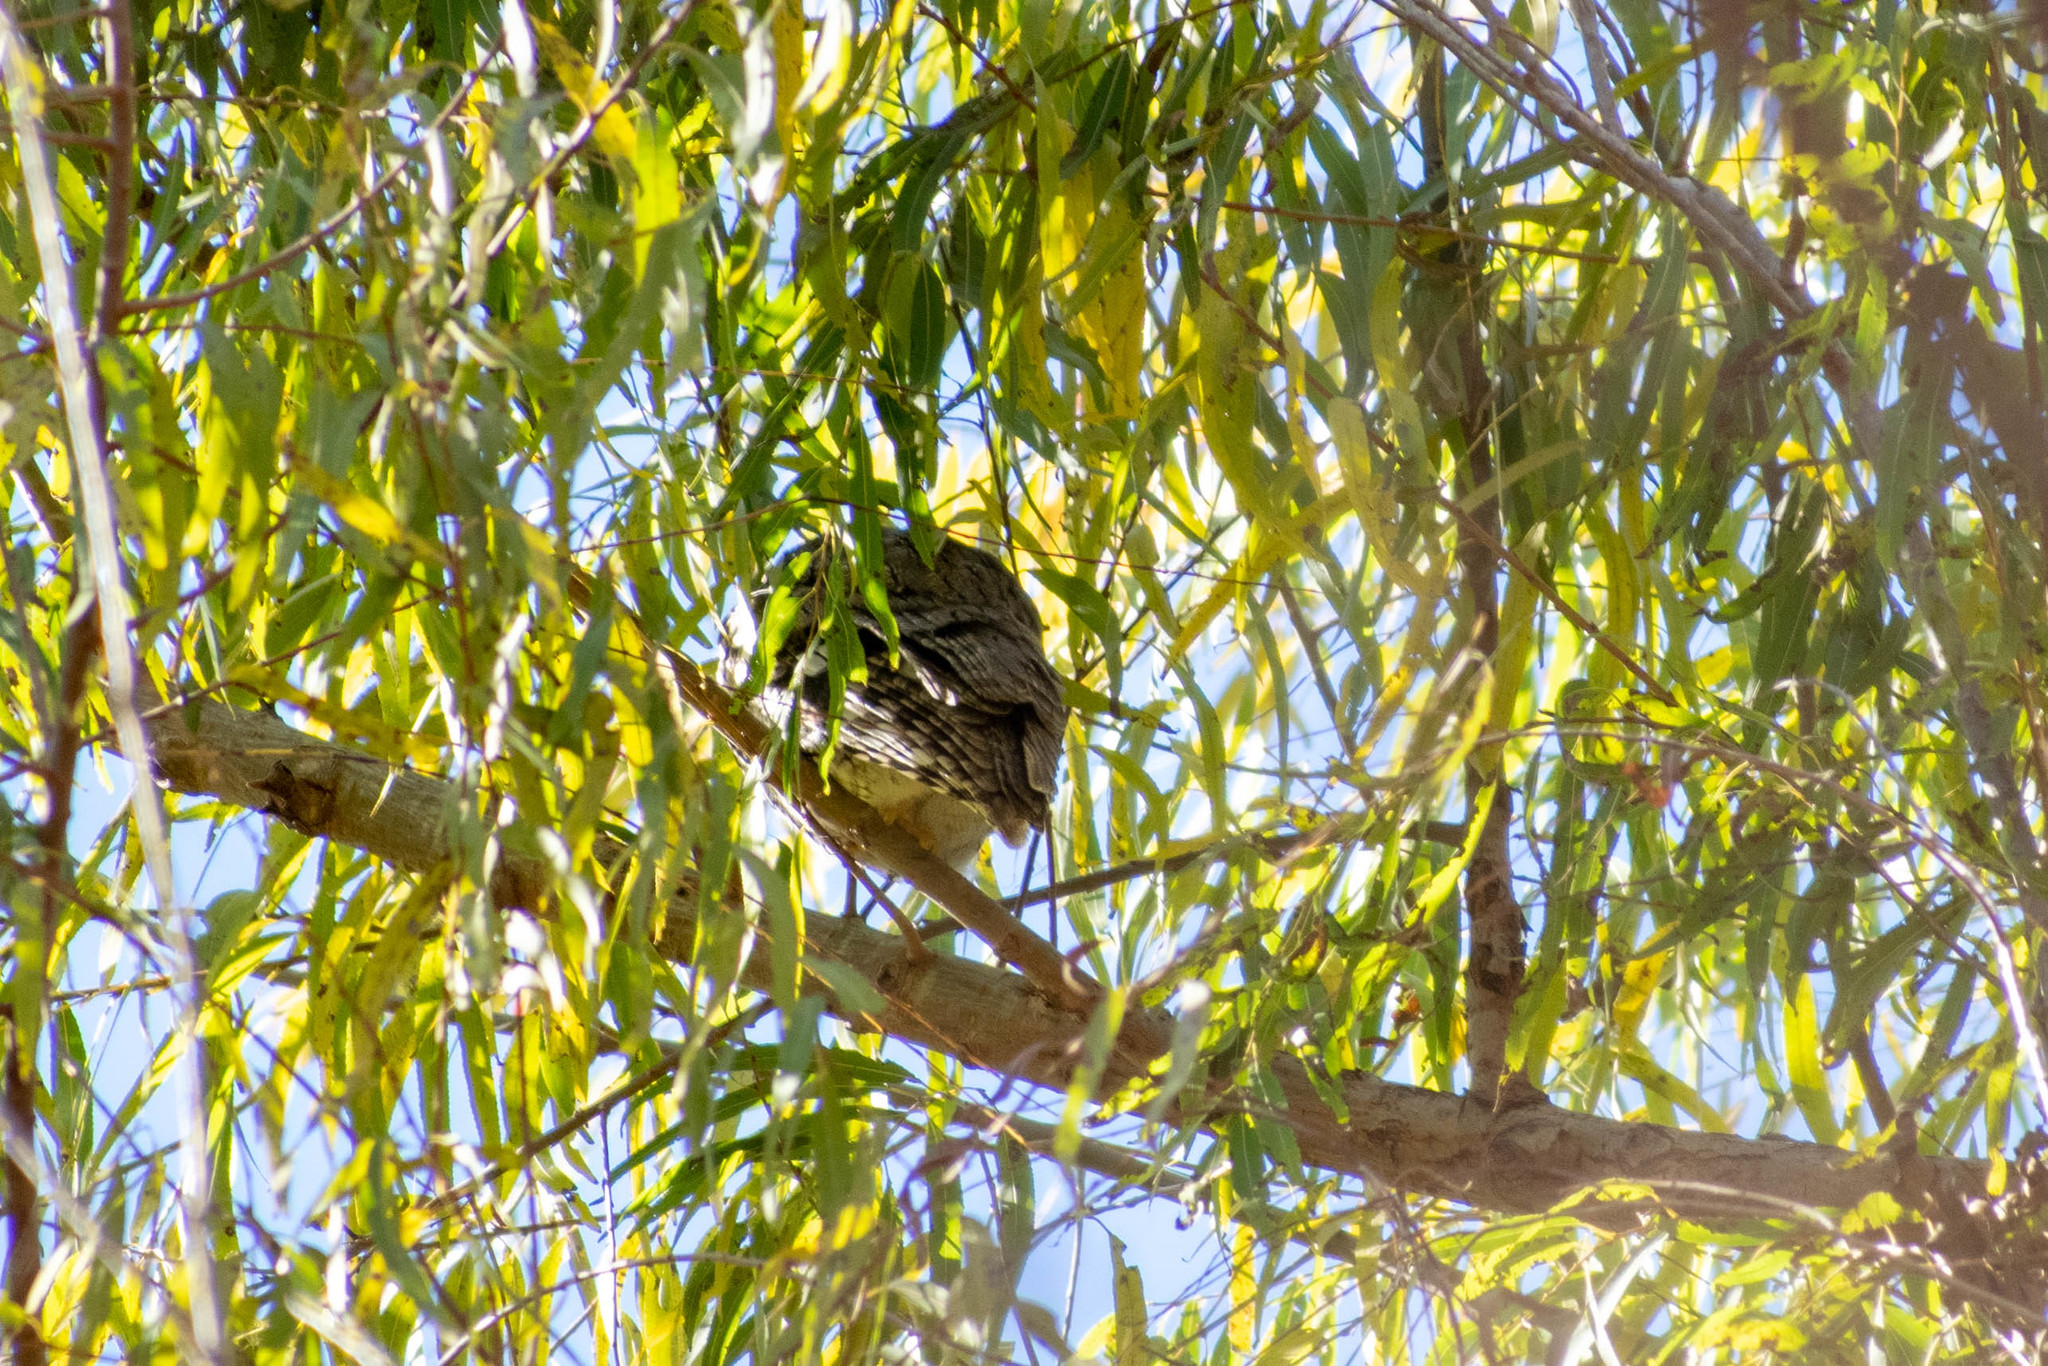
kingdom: Animalia
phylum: Chordata
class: Aves
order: Strigiformes
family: Strigidae
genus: Megascops
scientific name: Megascops asio
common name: Eastern screech-owl
